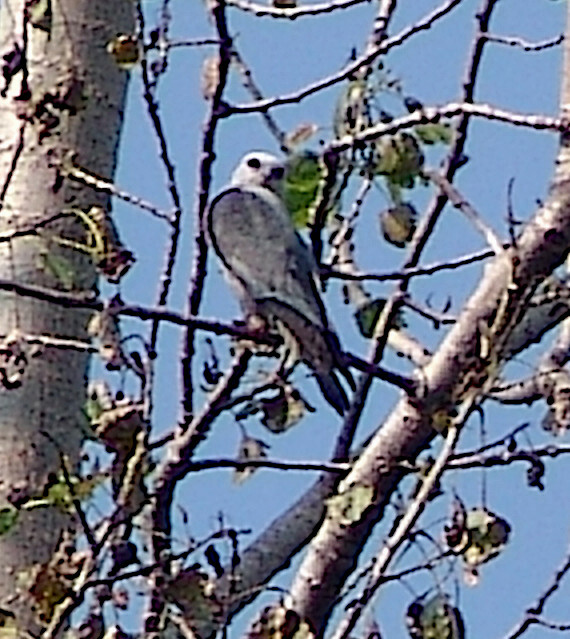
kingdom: Animalia
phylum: Chordata
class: Aves
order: Accipitriformes
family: Accipitridae
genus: Ictinia
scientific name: Ictinia mississippiensis
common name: Mississippi kite
